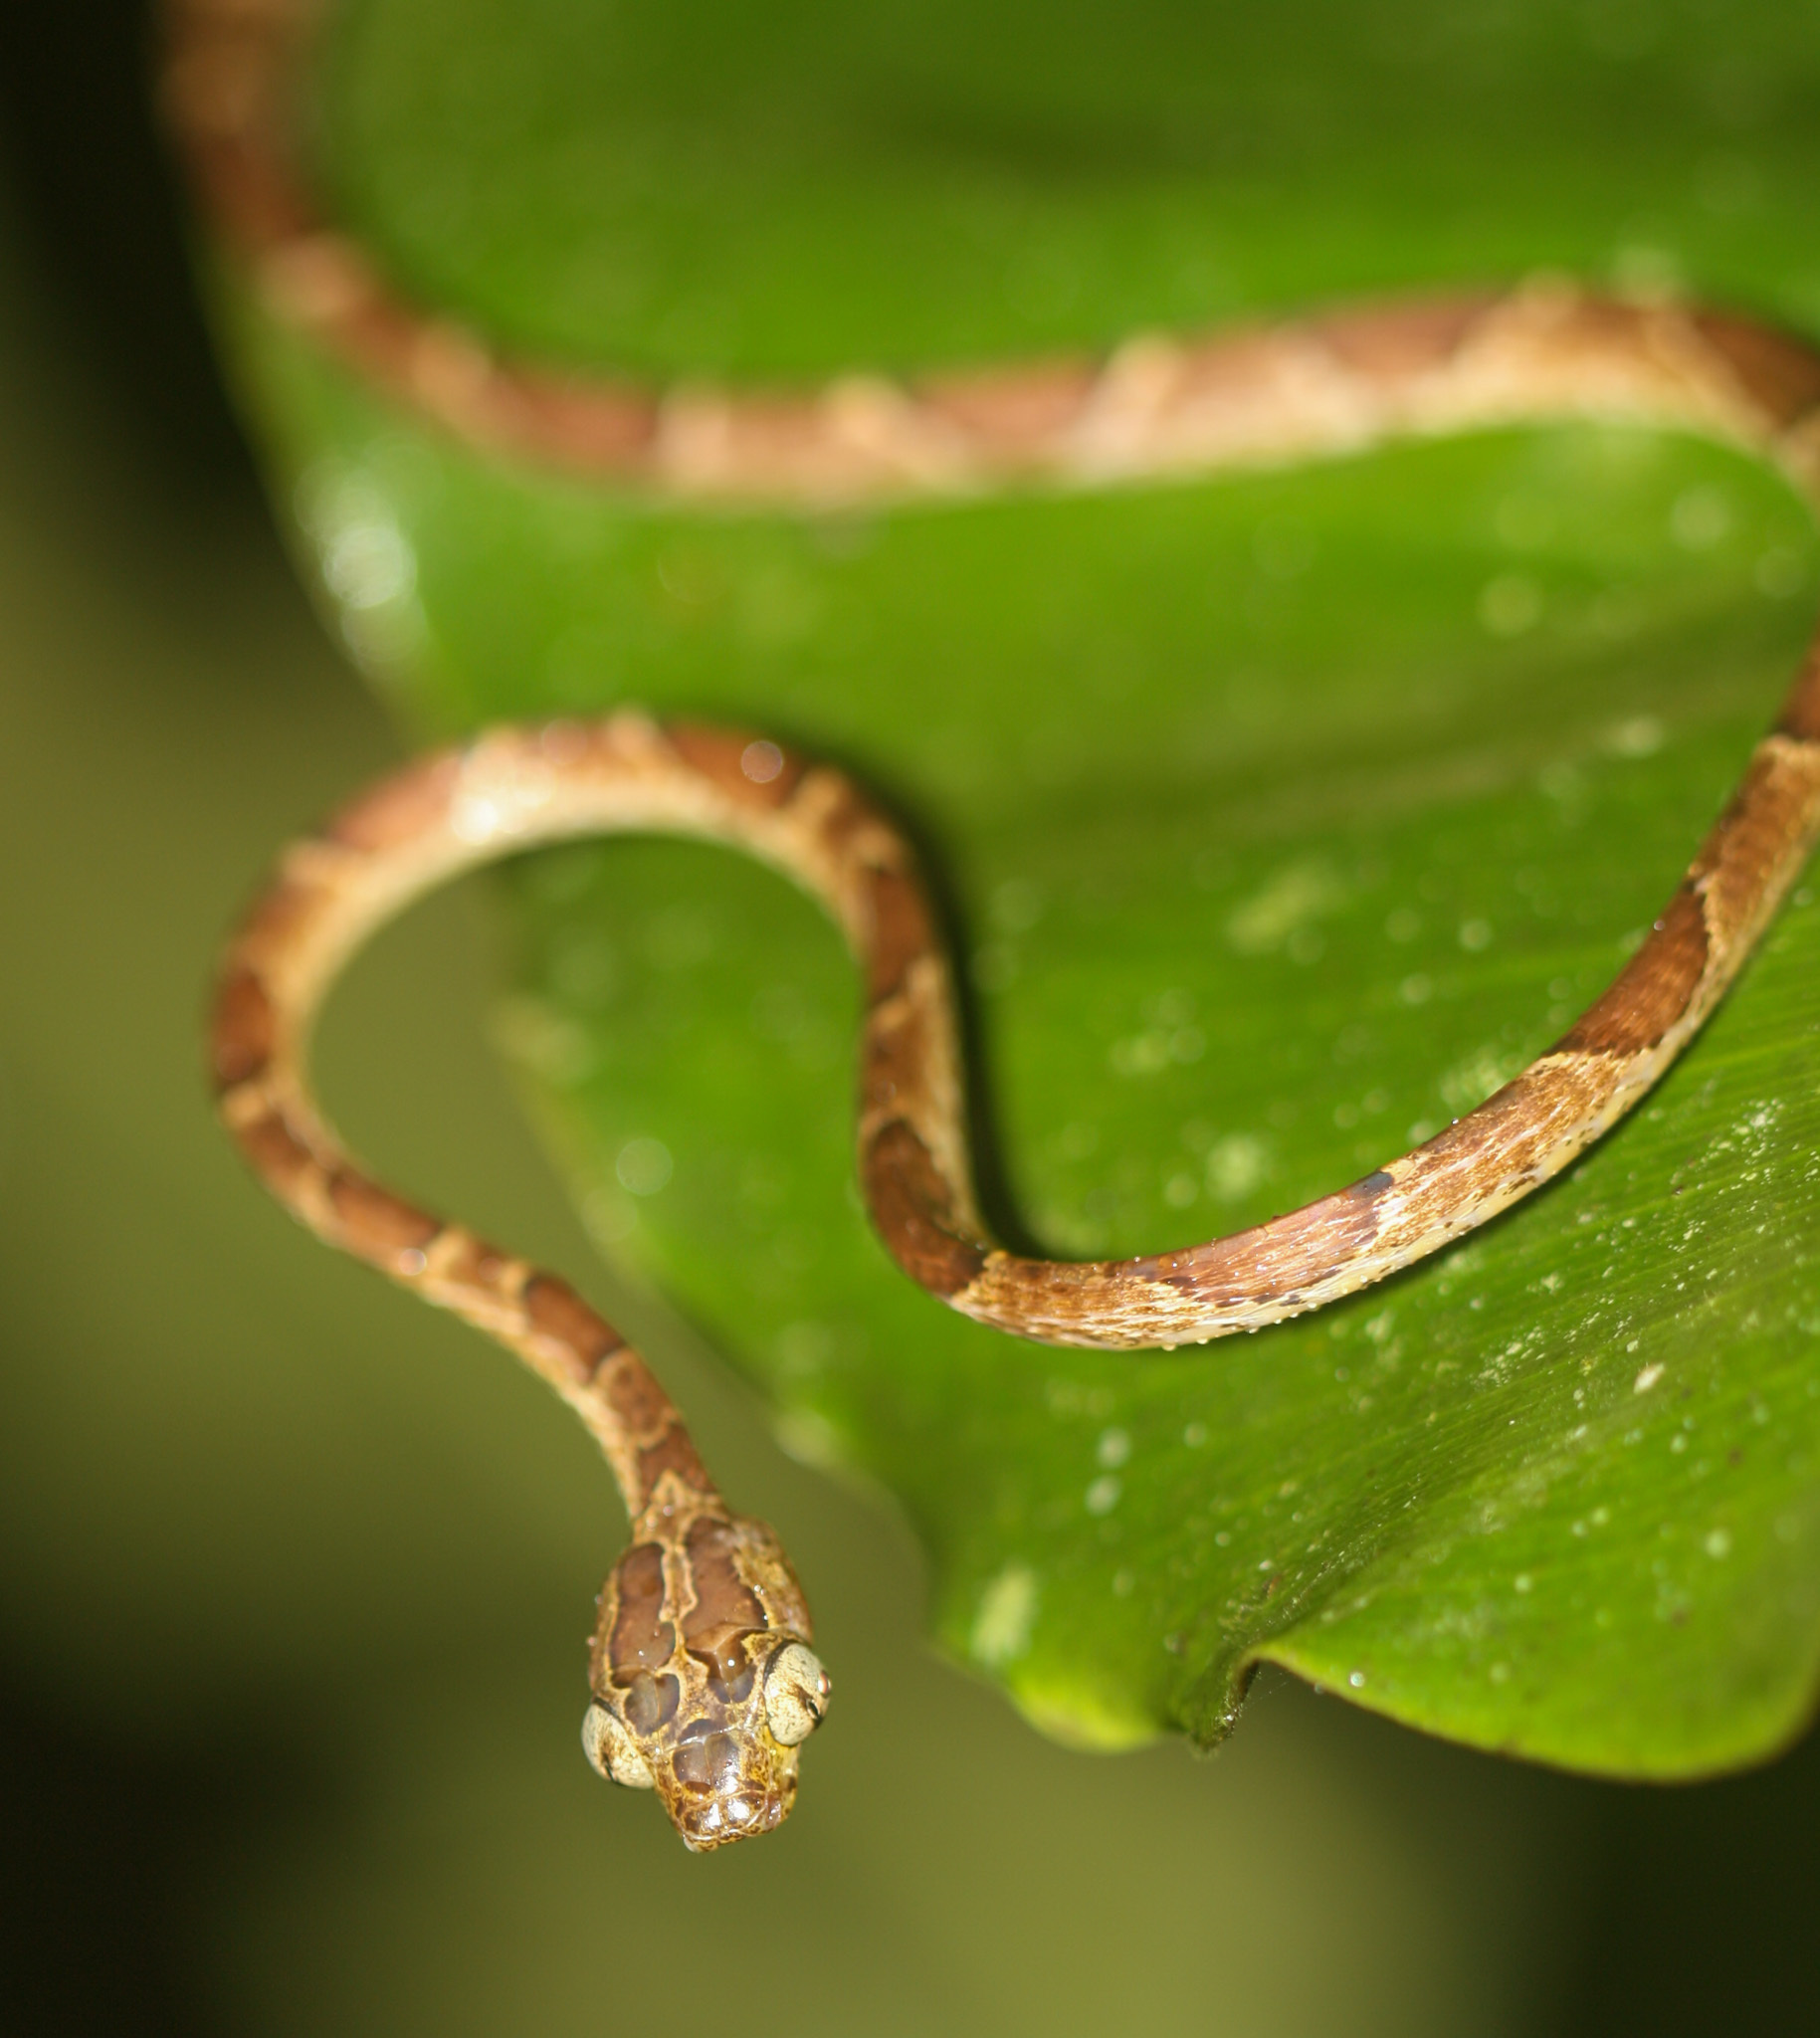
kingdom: Animalia
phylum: Chordata
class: Squamata
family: Colubridae
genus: Imantodes
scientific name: Imantodes cenchoa
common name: Blunthead tree snake
